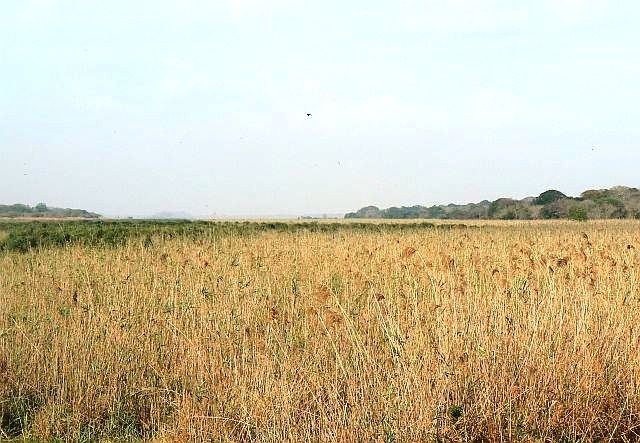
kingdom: Plantae
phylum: Tracheophyta
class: Liliopsida
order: Poales
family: Poaceae
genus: Phragmites
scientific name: Phragmites australis
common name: Common reed
